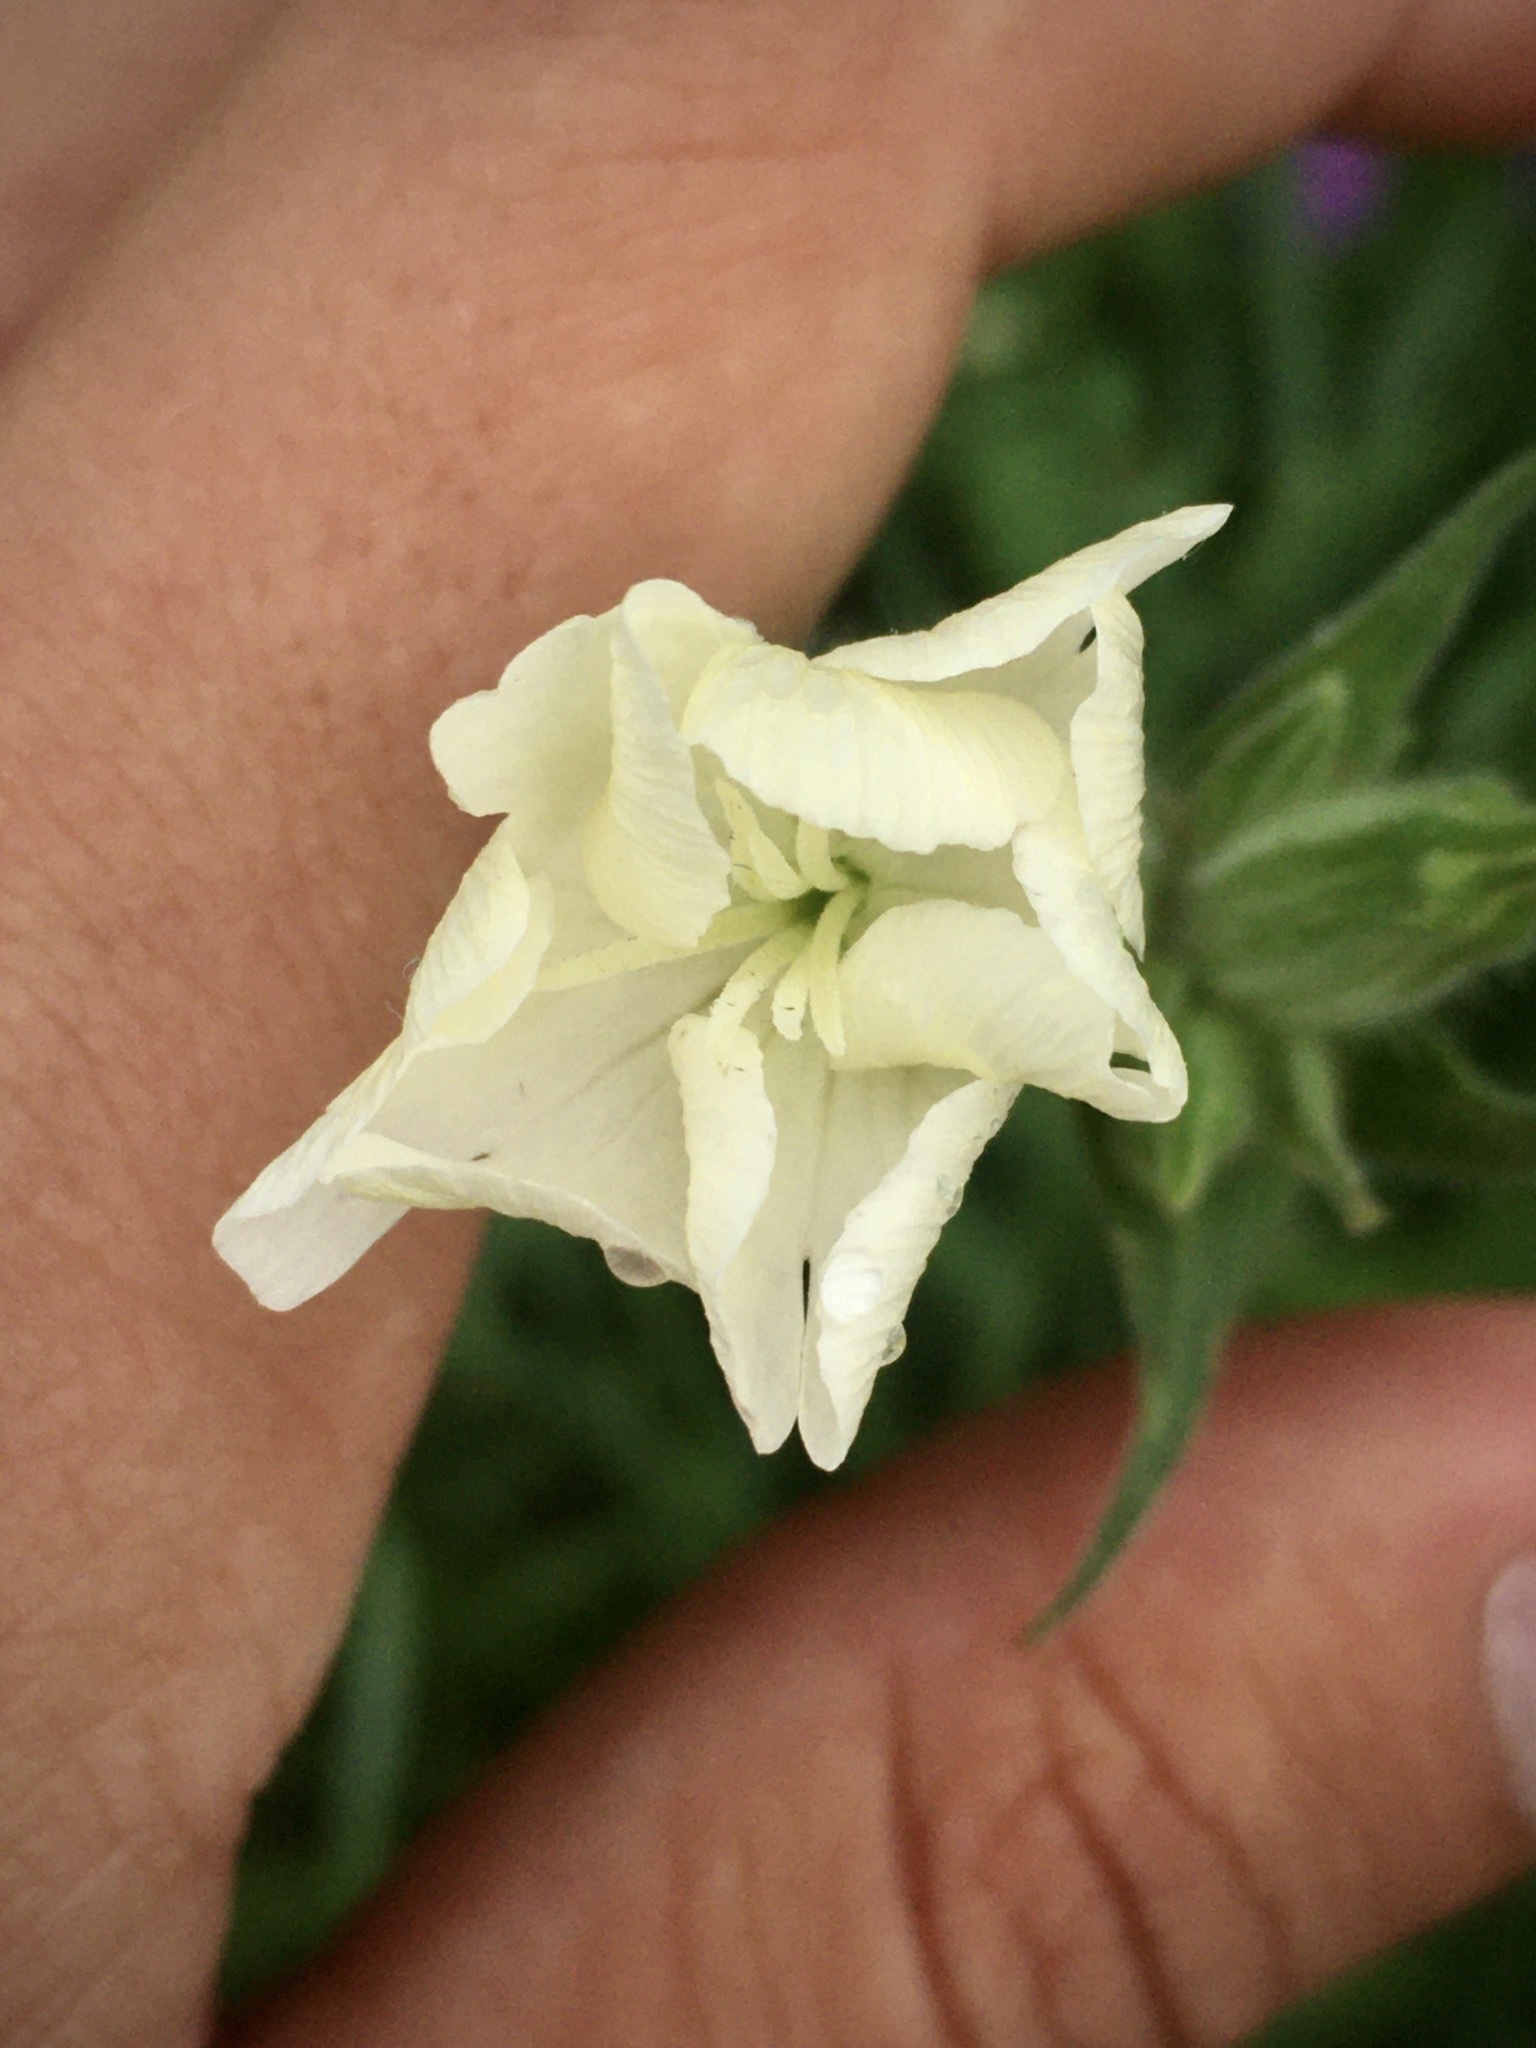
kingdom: Plantae
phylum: Tracheophyta
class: Magnoliopsida
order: Caryophyllales
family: Caryophyllaceae
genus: Silene
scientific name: Silene latifolia
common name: White campion
